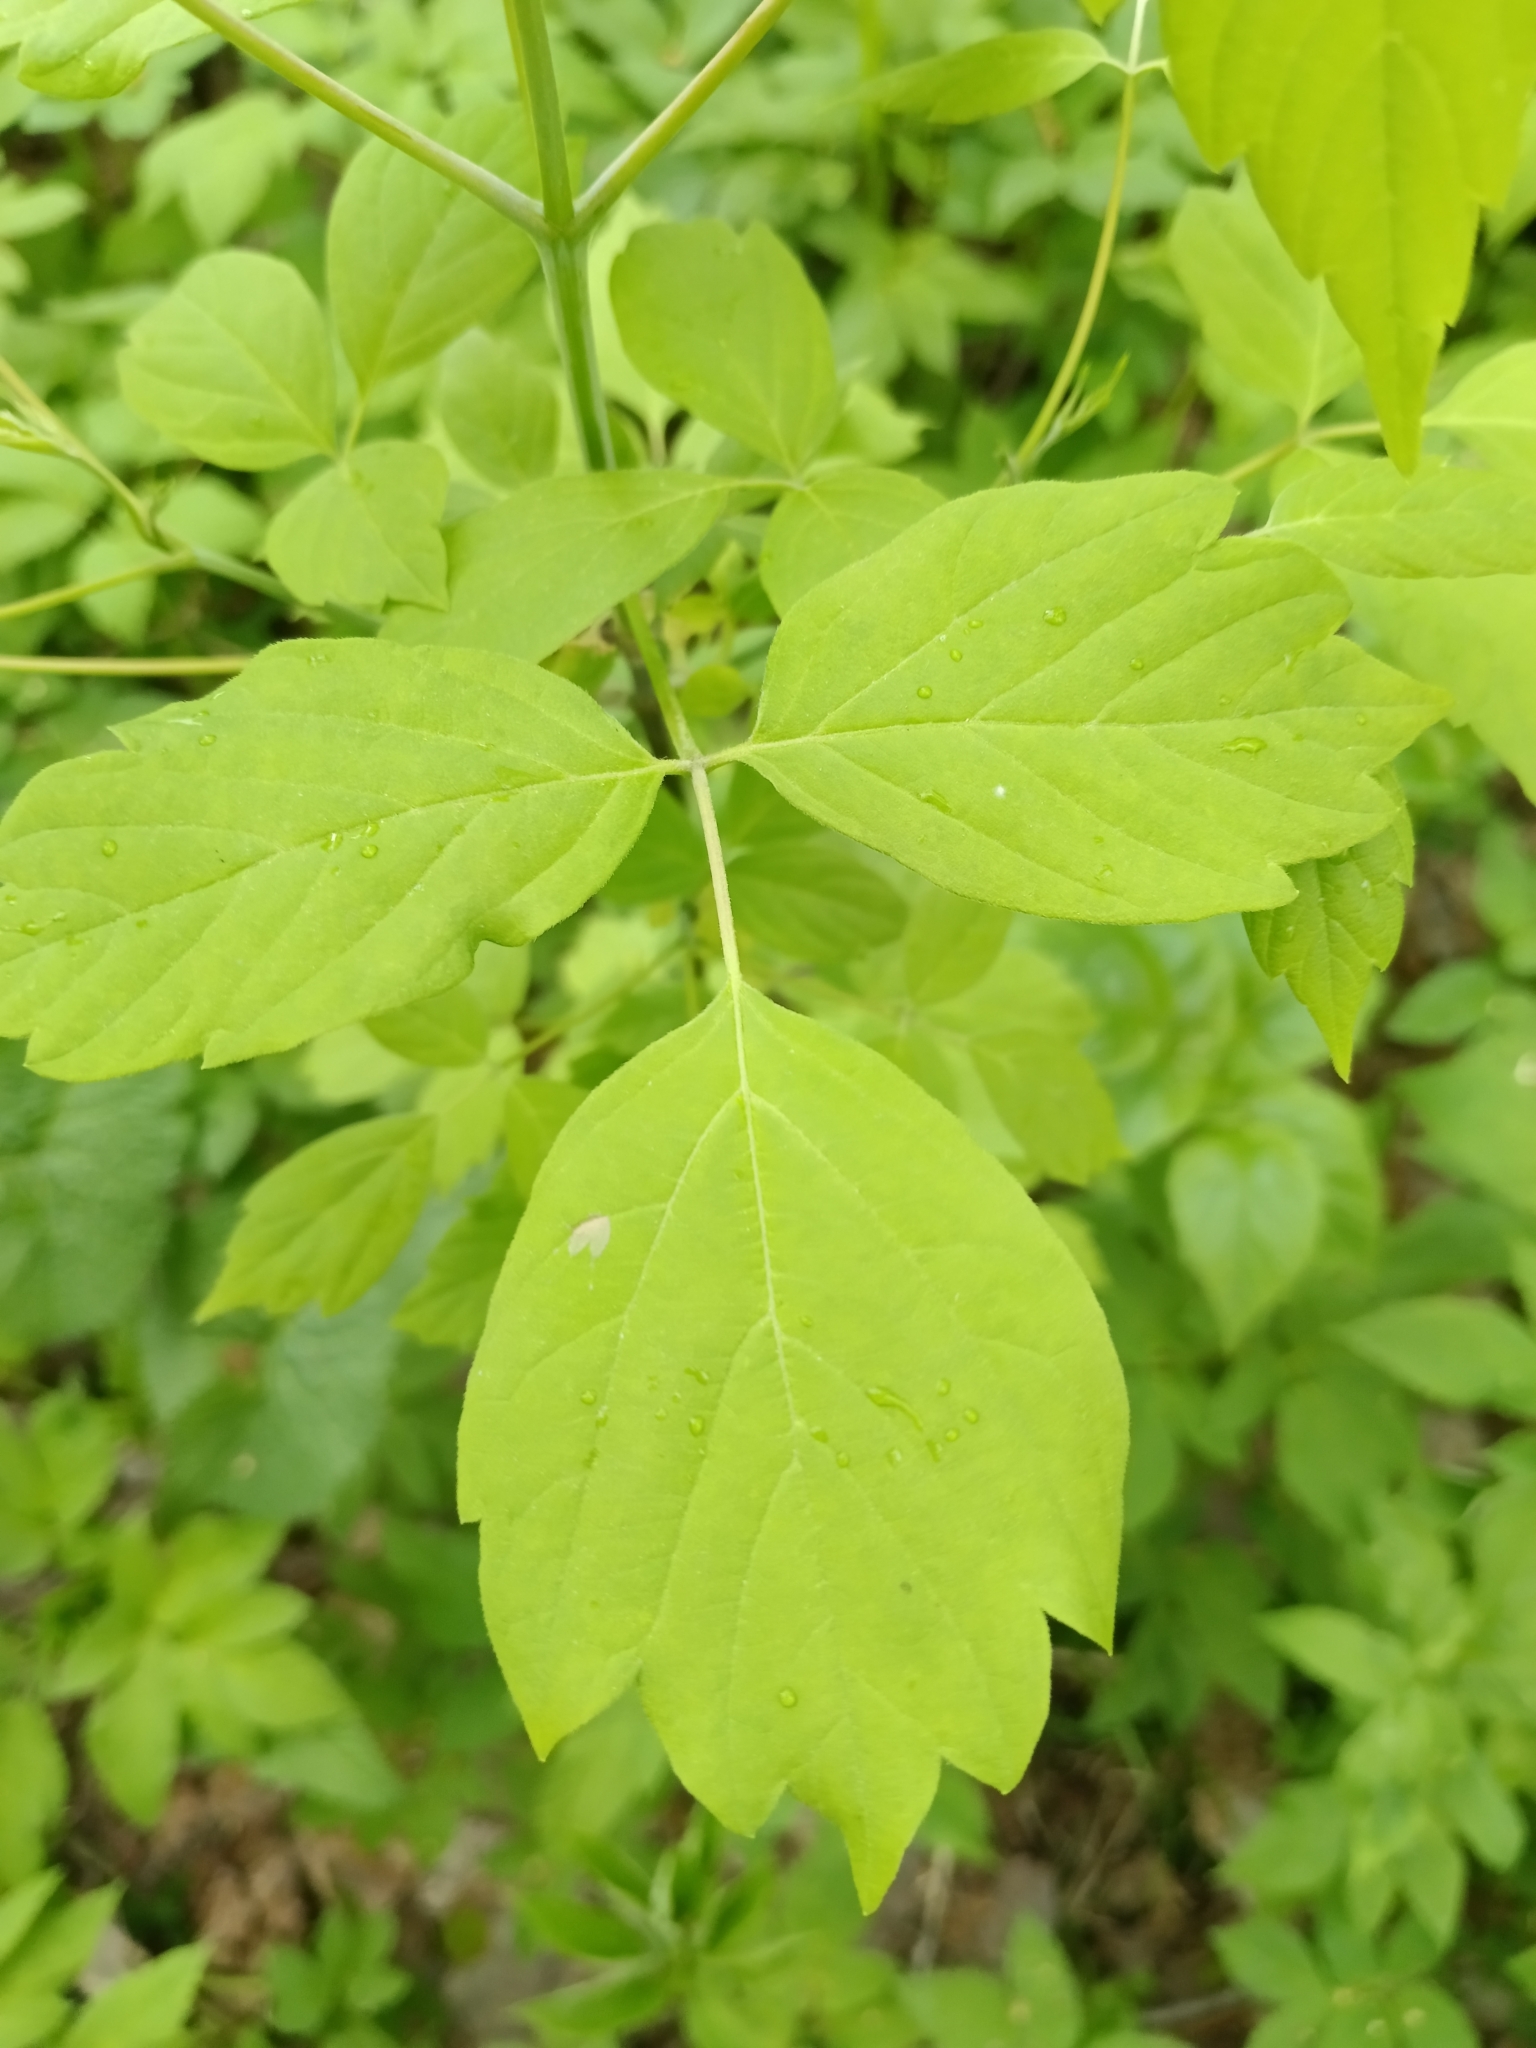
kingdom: Plantae
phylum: Tracheophyta
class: Magnoliopsida
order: Sapindales
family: Sapindaceae
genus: Acer
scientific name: Acer negundo
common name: Ashleaf maple
